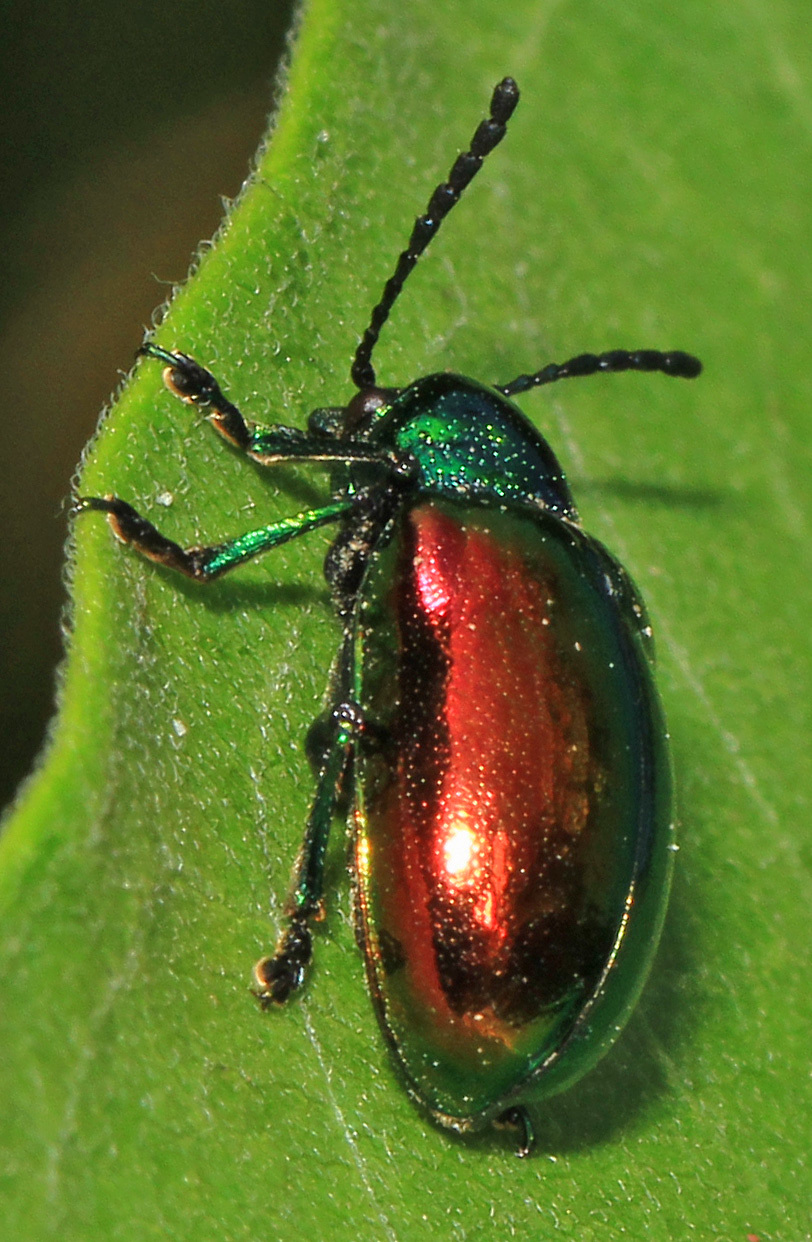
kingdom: Animalia
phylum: Arthropoda
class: Insecta
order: Coleoptera
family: Chrysomelidae
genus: Chrysochus
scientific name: Chrysochus auratus
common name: Dogbane leaf beetle
